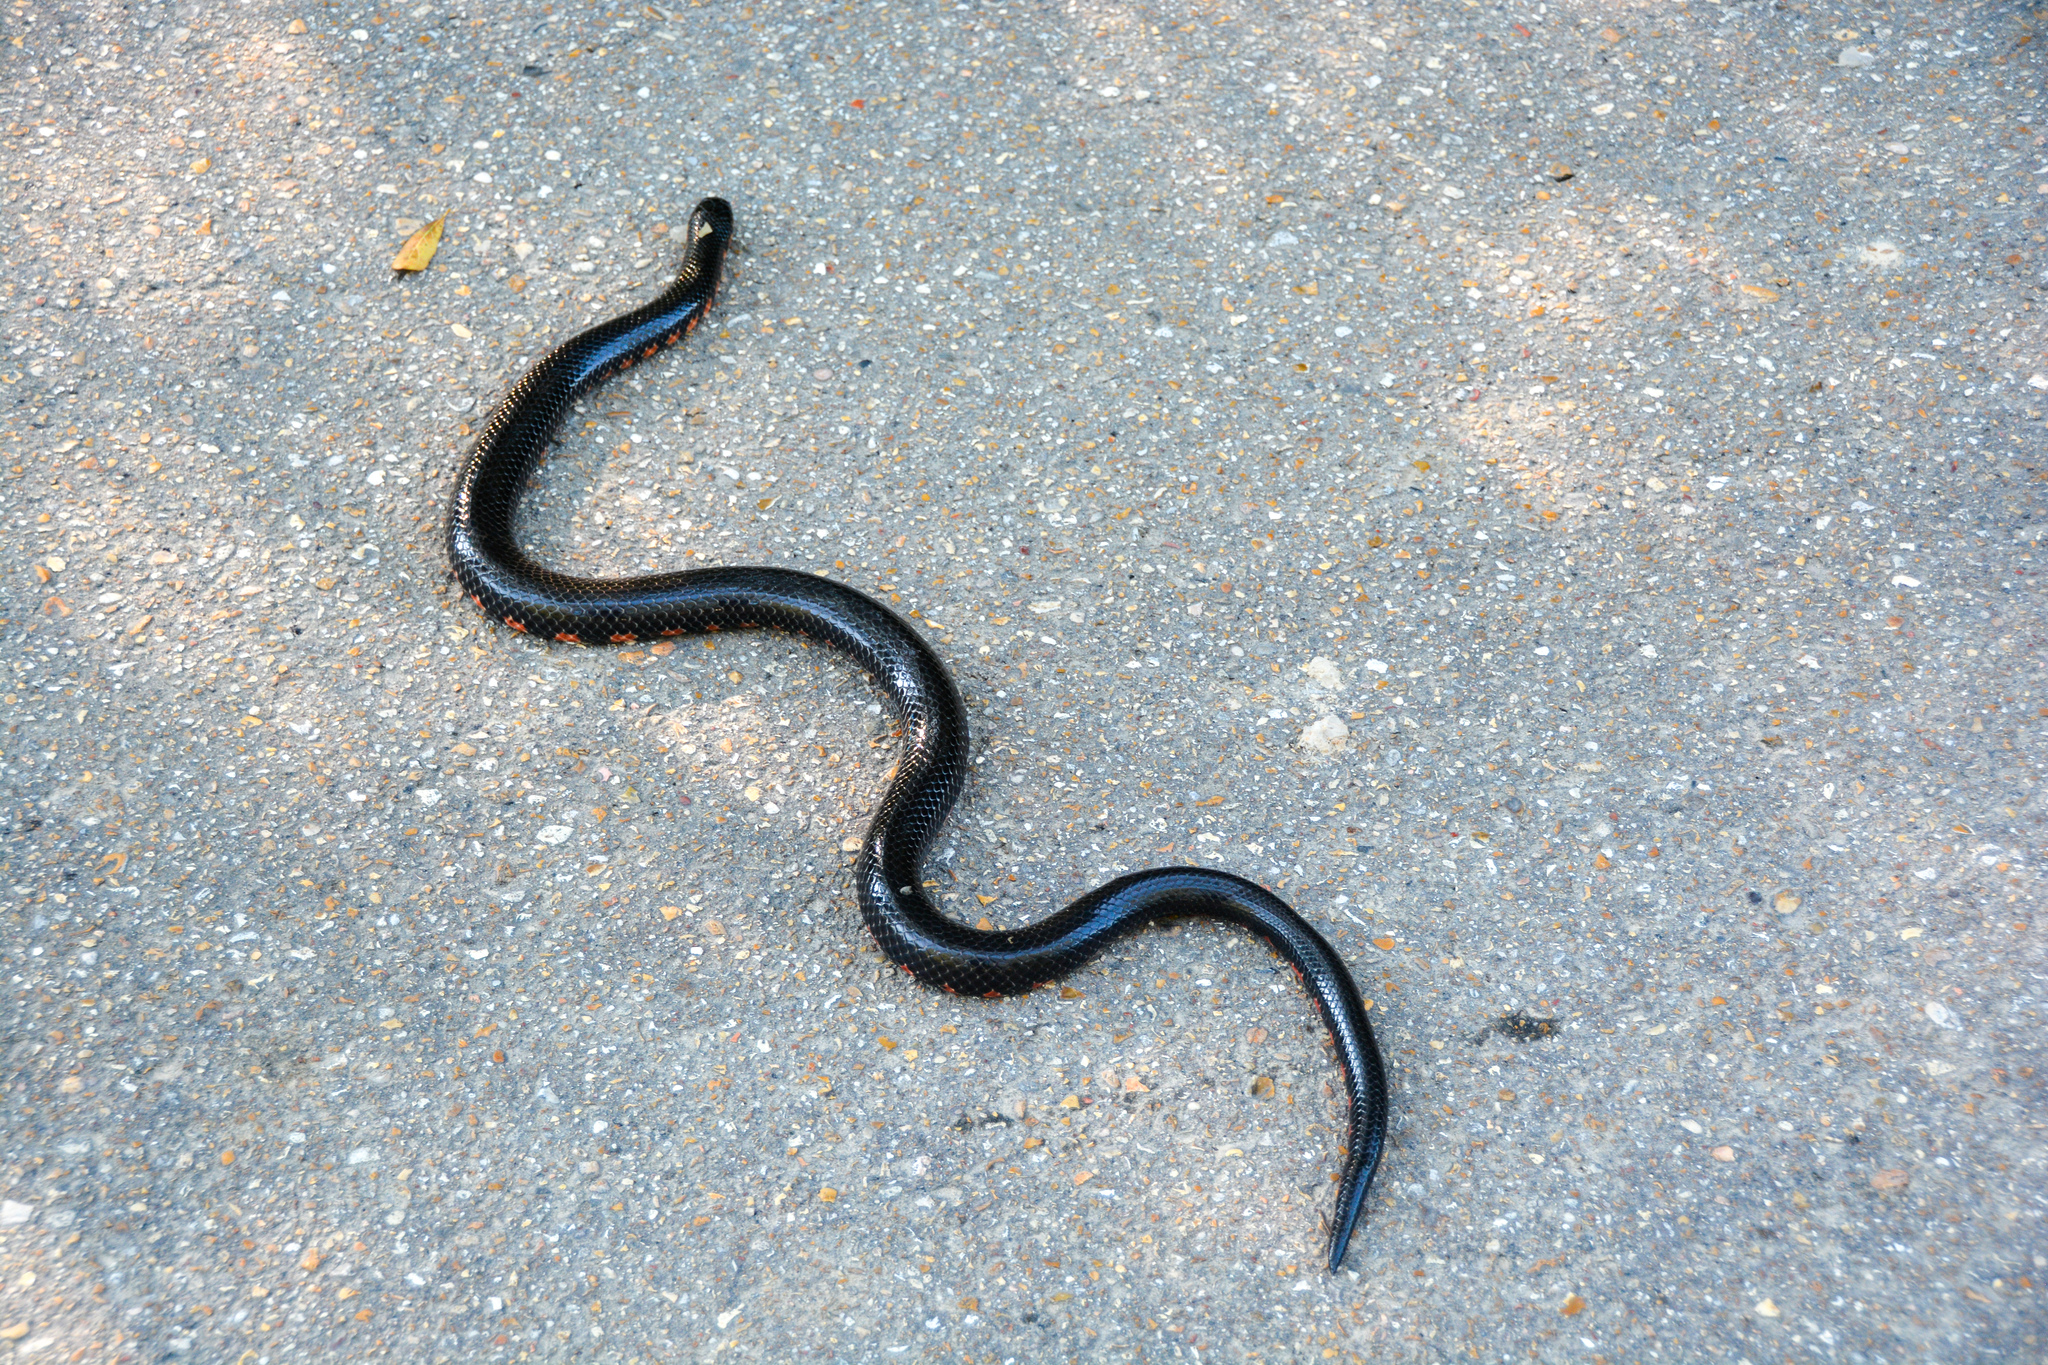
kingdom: Animalia
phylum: Chordata
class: Squamata
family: Colubridae
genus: Farancia
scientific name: Farancia abacura
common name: Mud snake
